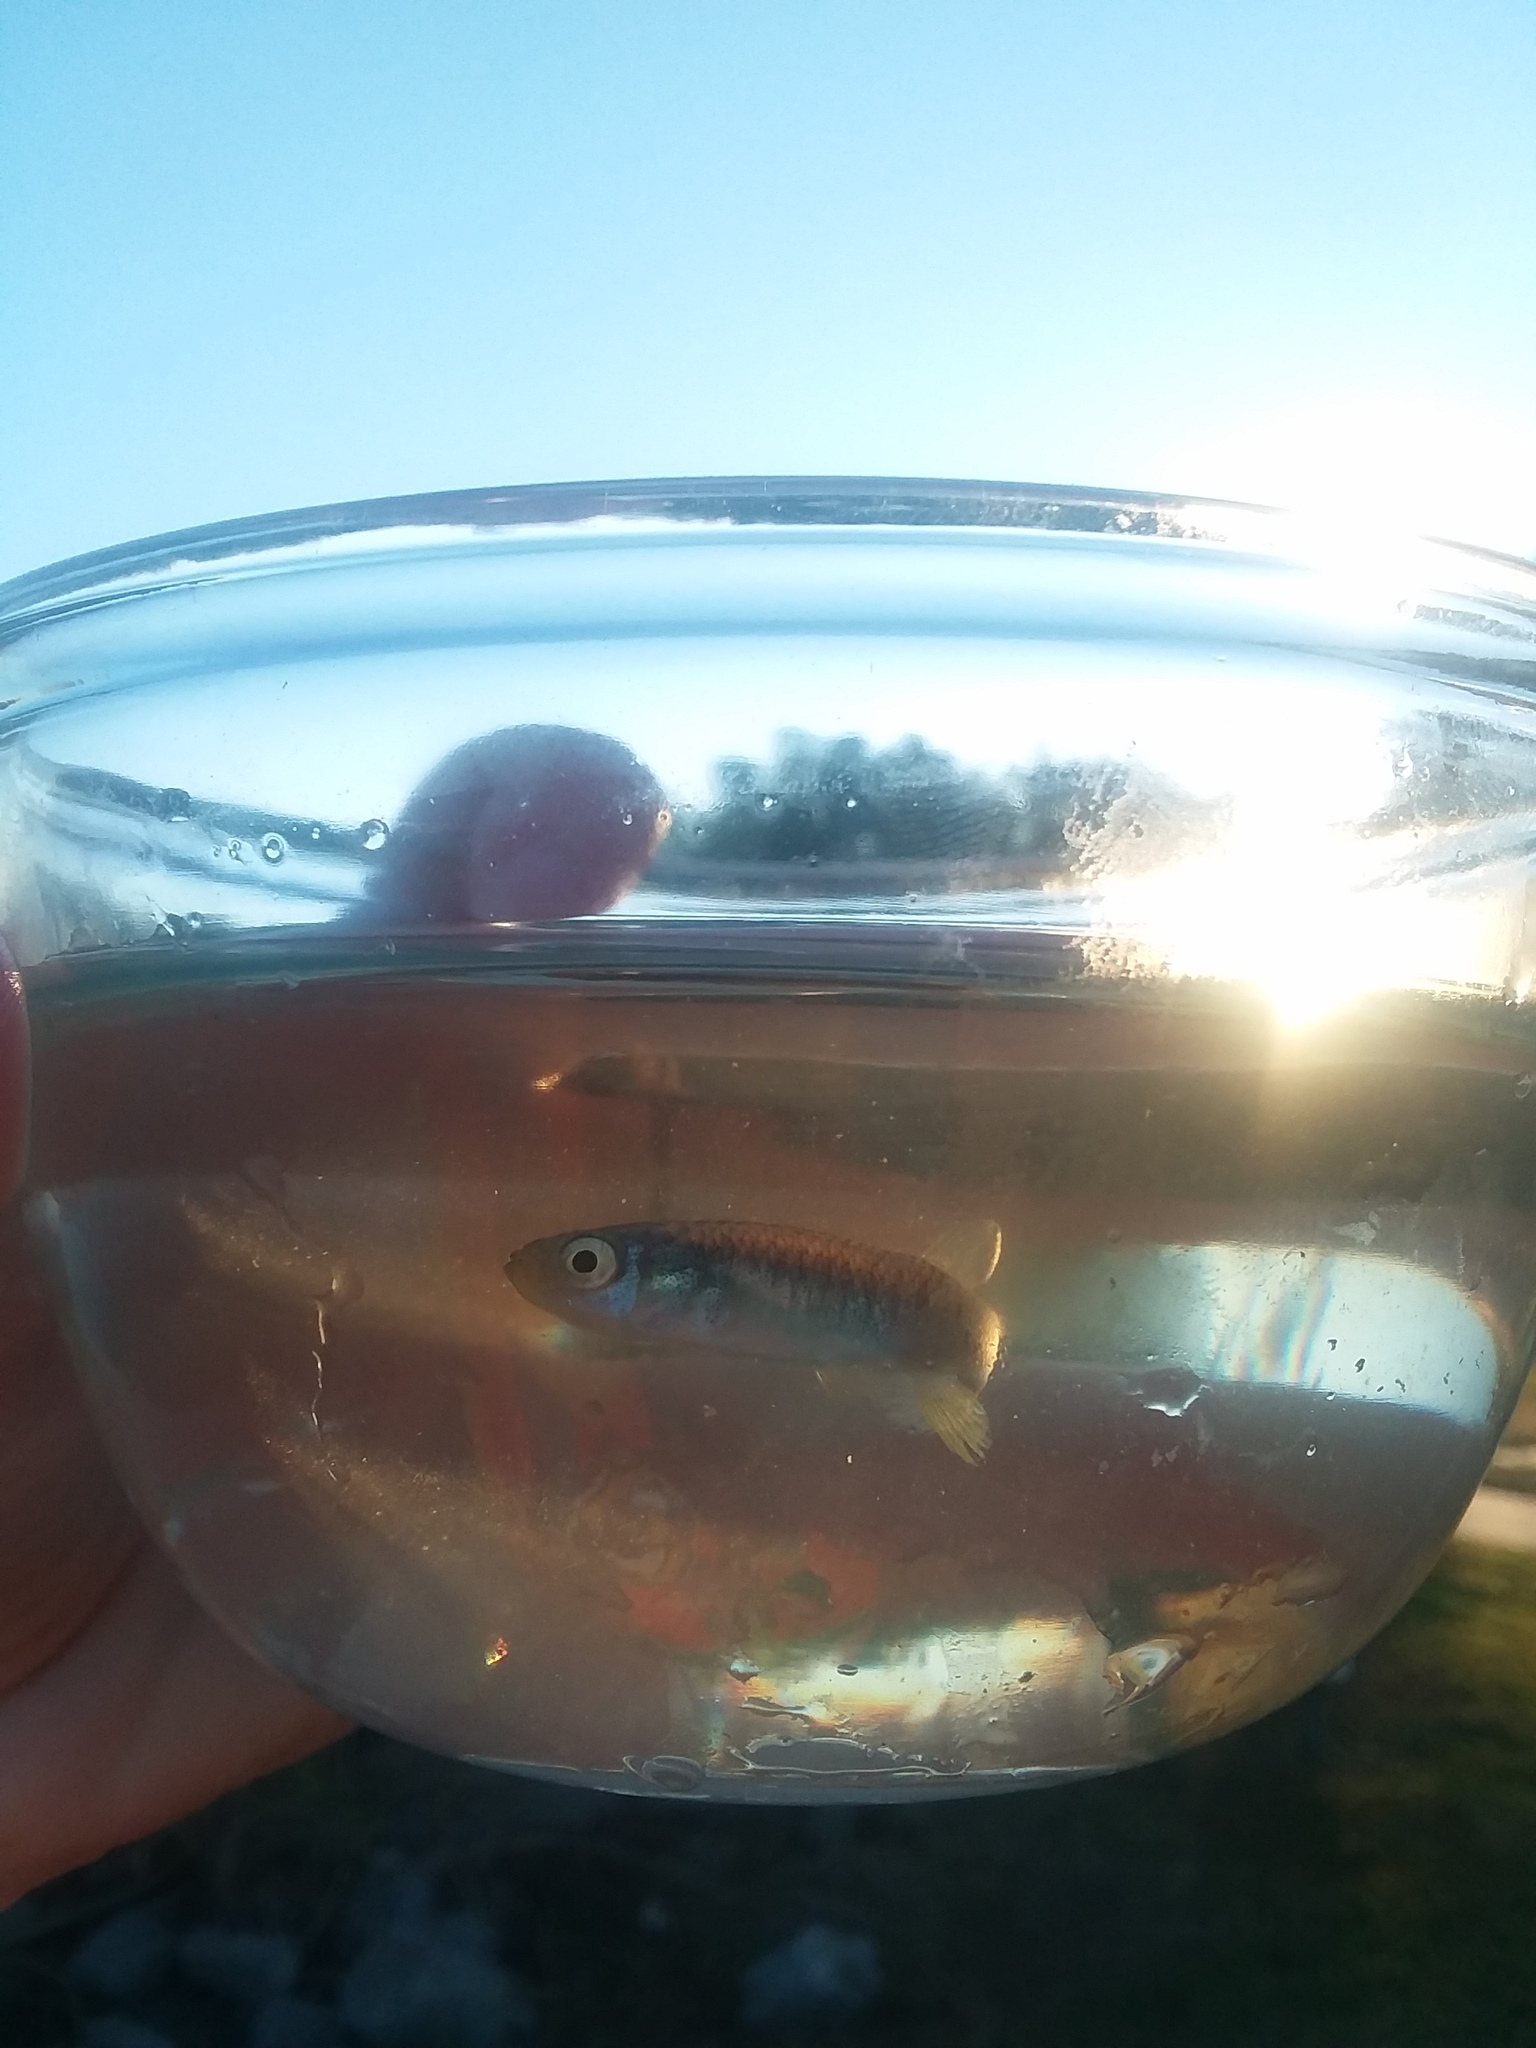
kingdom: Animalia
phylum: Chordata
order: Cyprinodontiformes
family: Fundulidae
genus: Fundulus
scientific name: Fundulus heteroclitus
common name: Mummichog
